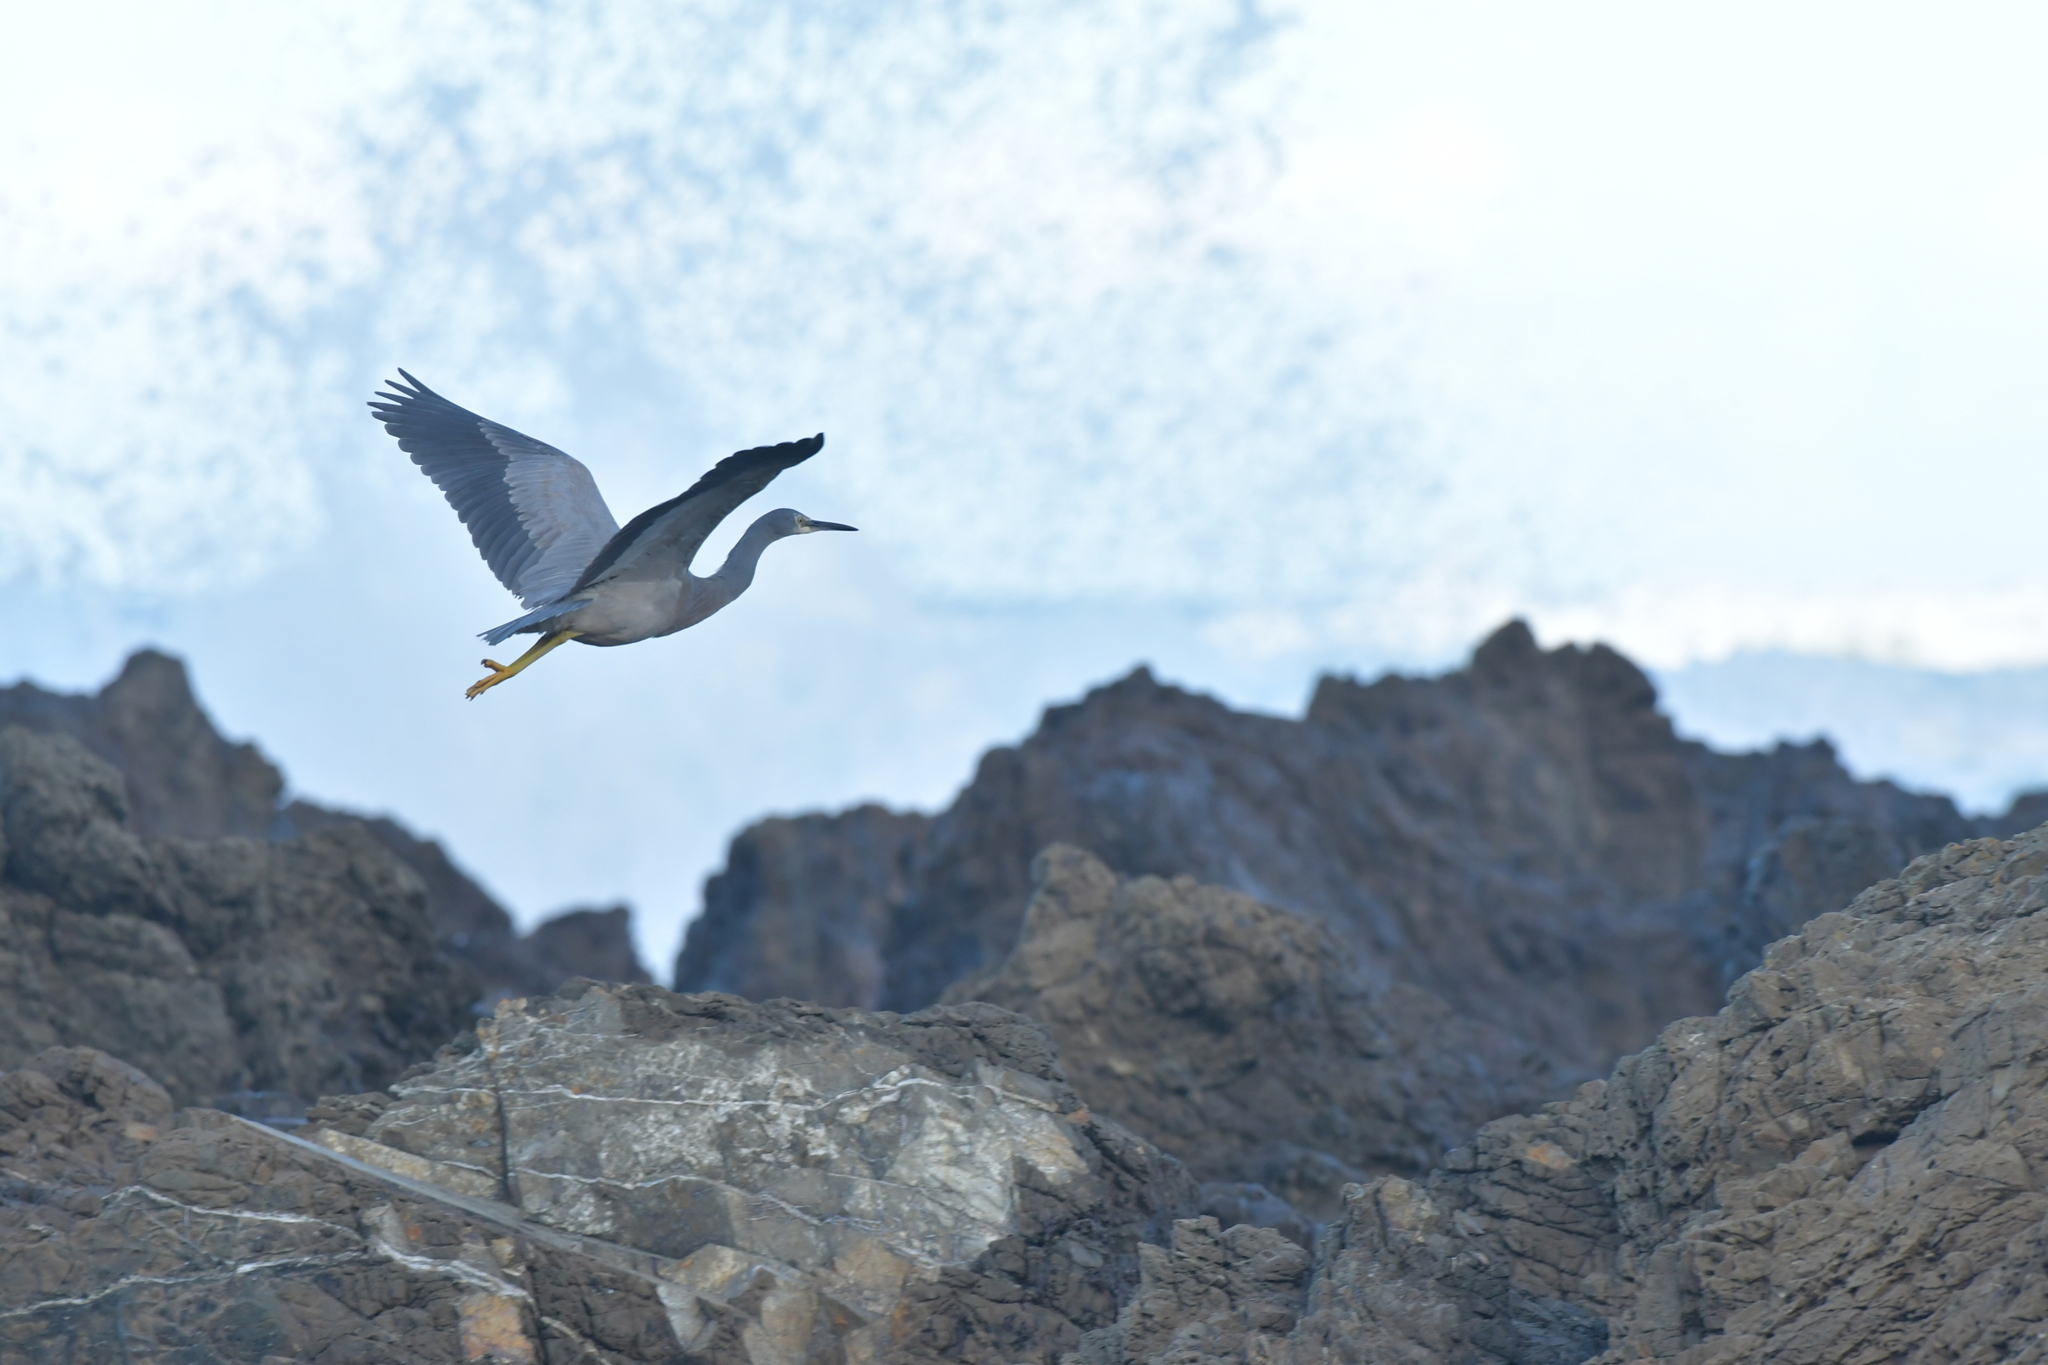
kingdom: Animalia
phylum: Chordata
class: Aves
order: Pelecaniformes
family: Ardeidae
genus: Egretta
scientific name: Egretta novaehollandiae
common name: White-faced heron
